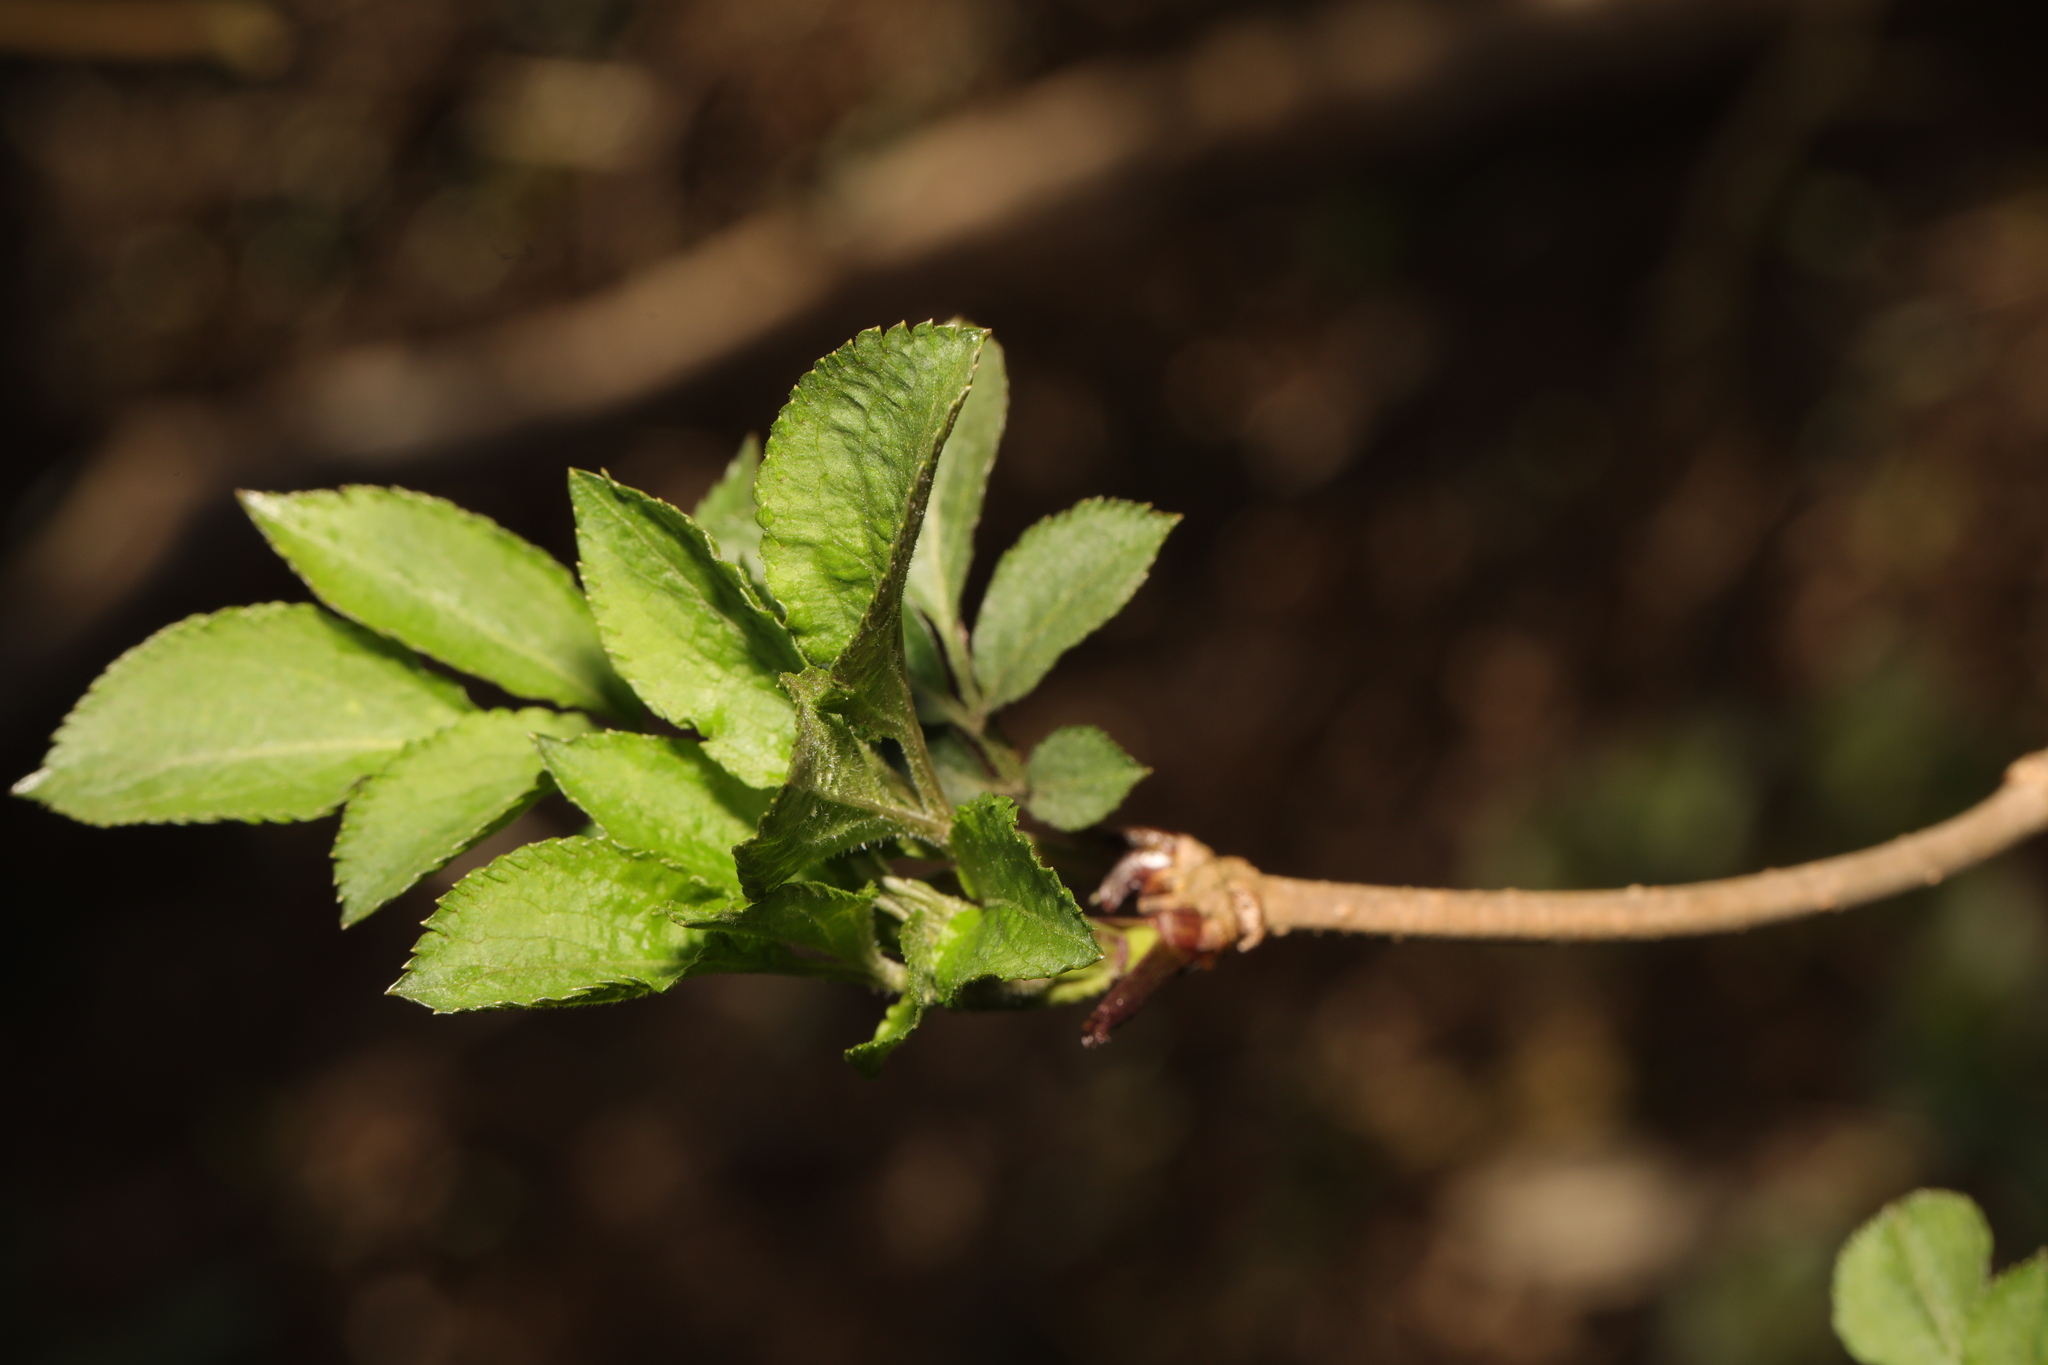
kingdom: Plantae
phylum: Tracheophyta
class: Magnoliopsida
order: Dipsacales
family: Viburnaceae
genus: Sambucus
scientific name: Sambucus nigra
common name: Elder
